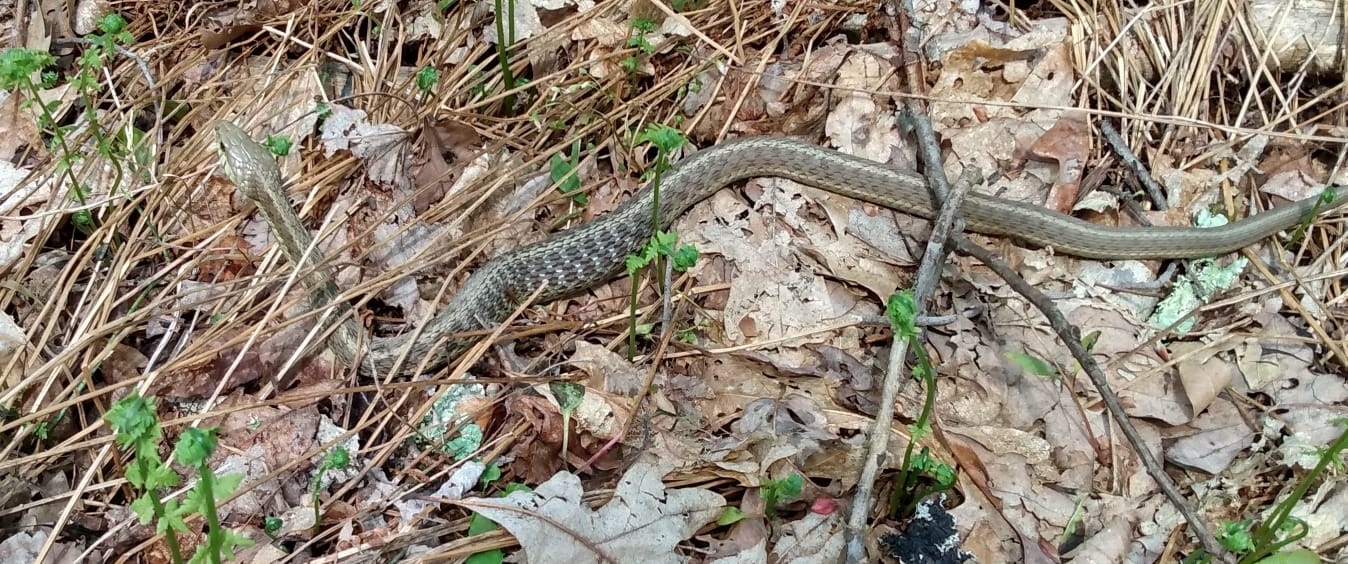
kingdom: Animalia
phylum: Chordata
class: Squamata
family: Colubridae
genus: Thamnophis
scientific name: Thamnophis sirtalis
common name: Common garter snake
